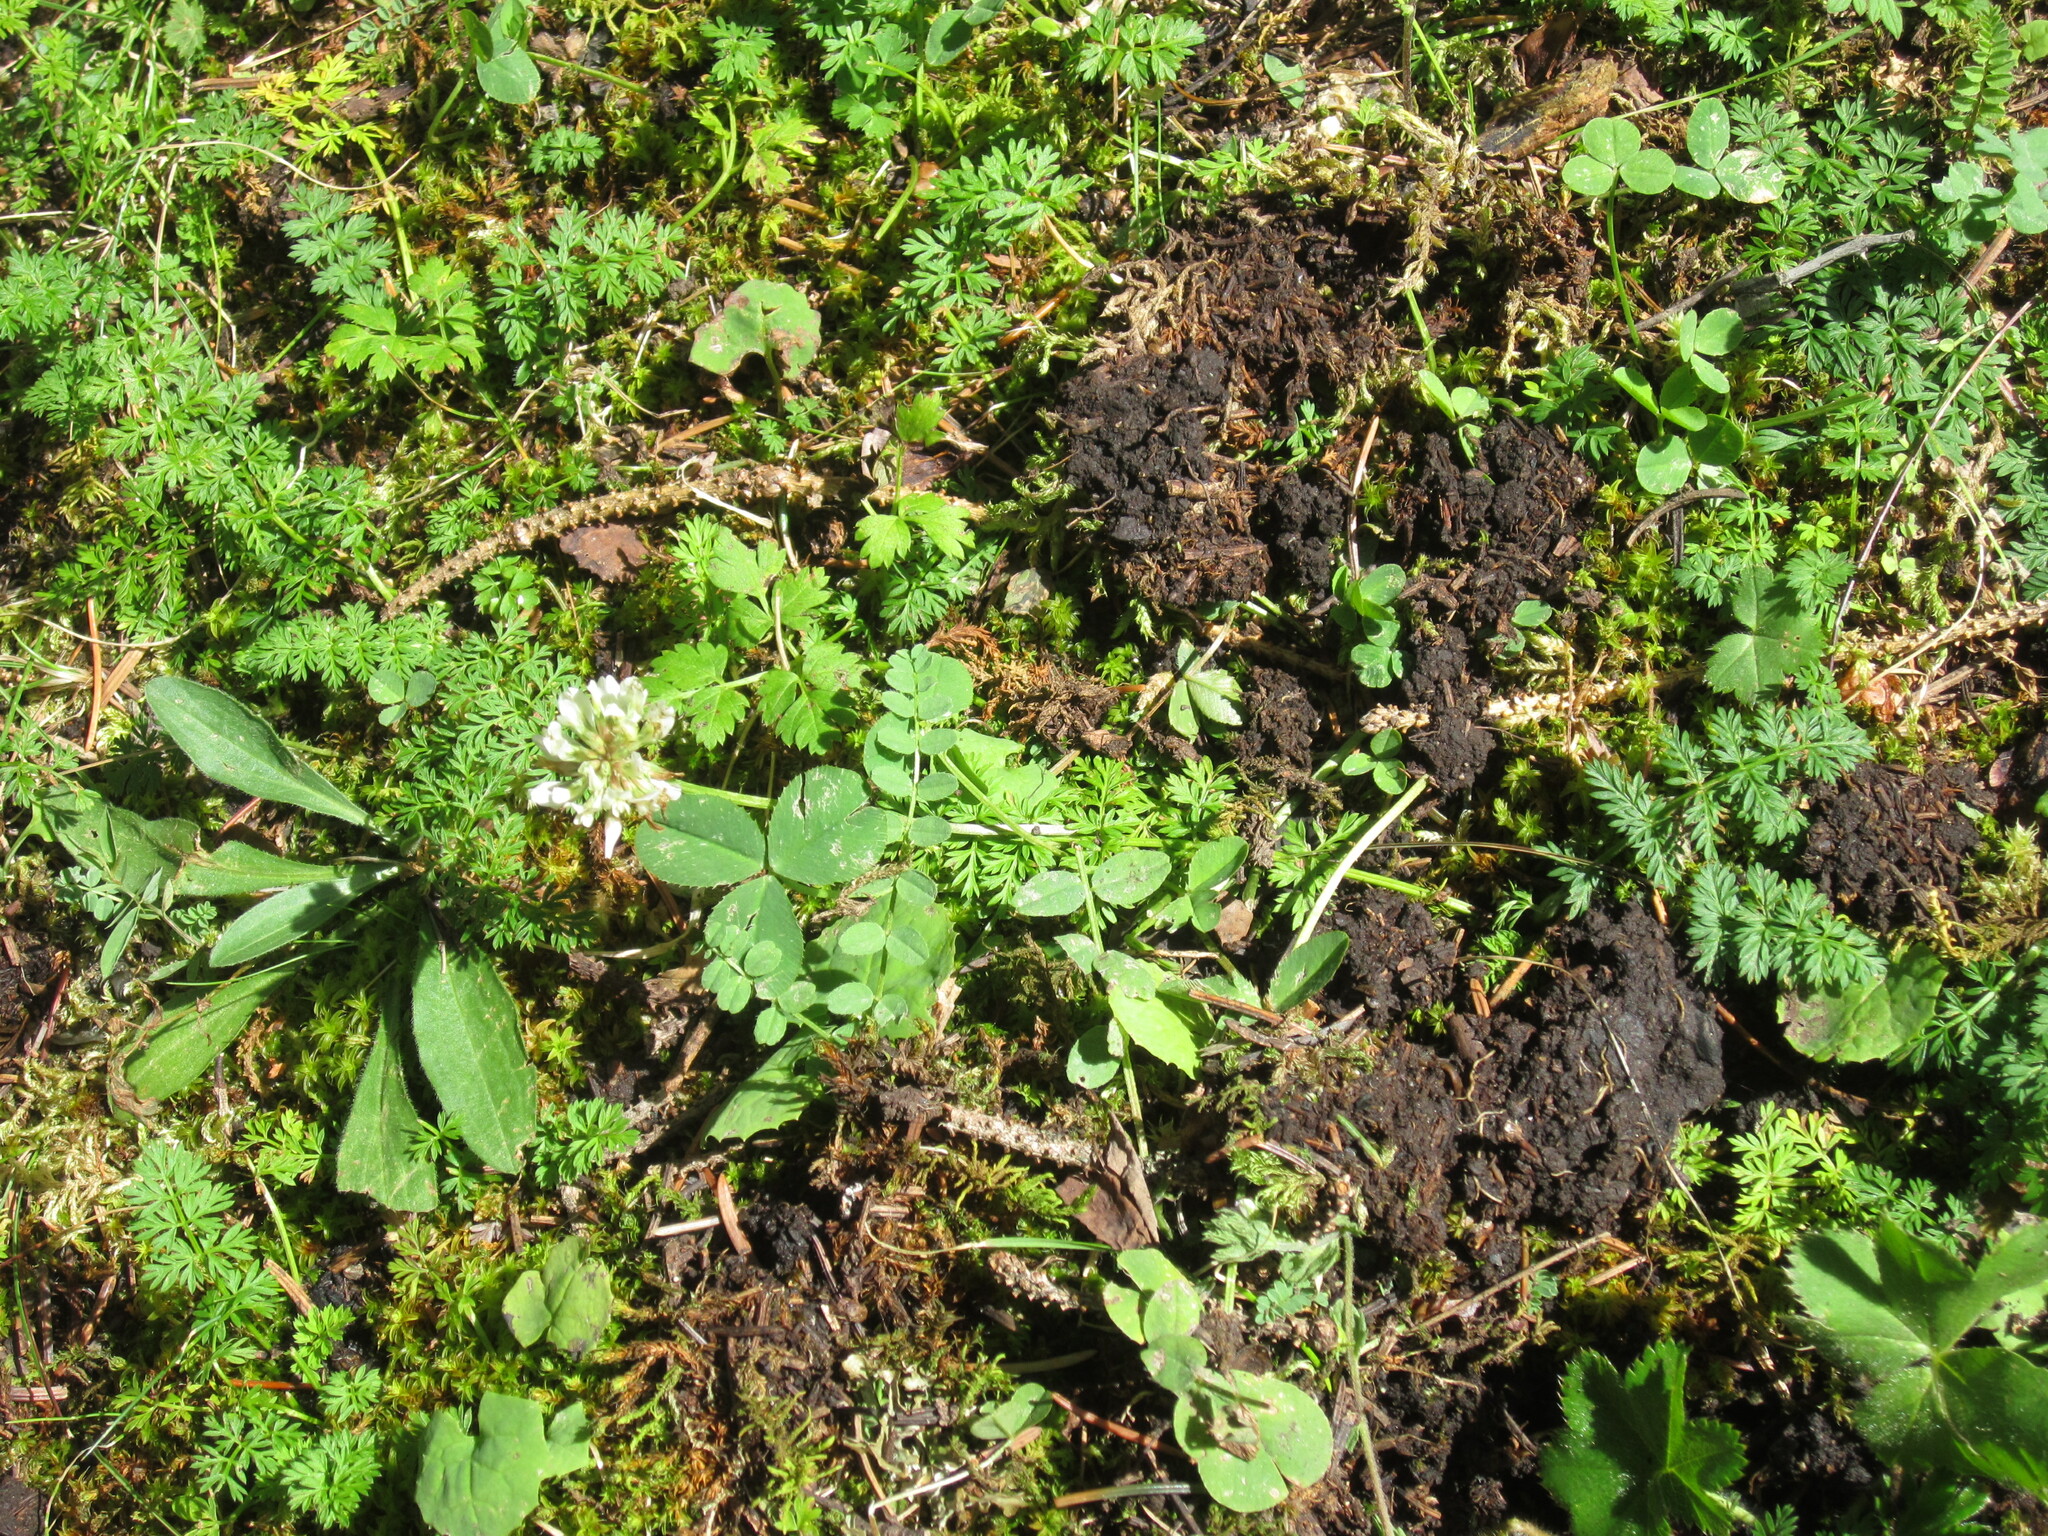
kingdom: Plantae
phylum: Tracheophyta
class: Magnoliopsida
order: Fabales
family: Fabaceae
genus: Trifolium
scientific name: Trifolium repens
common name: White clover
